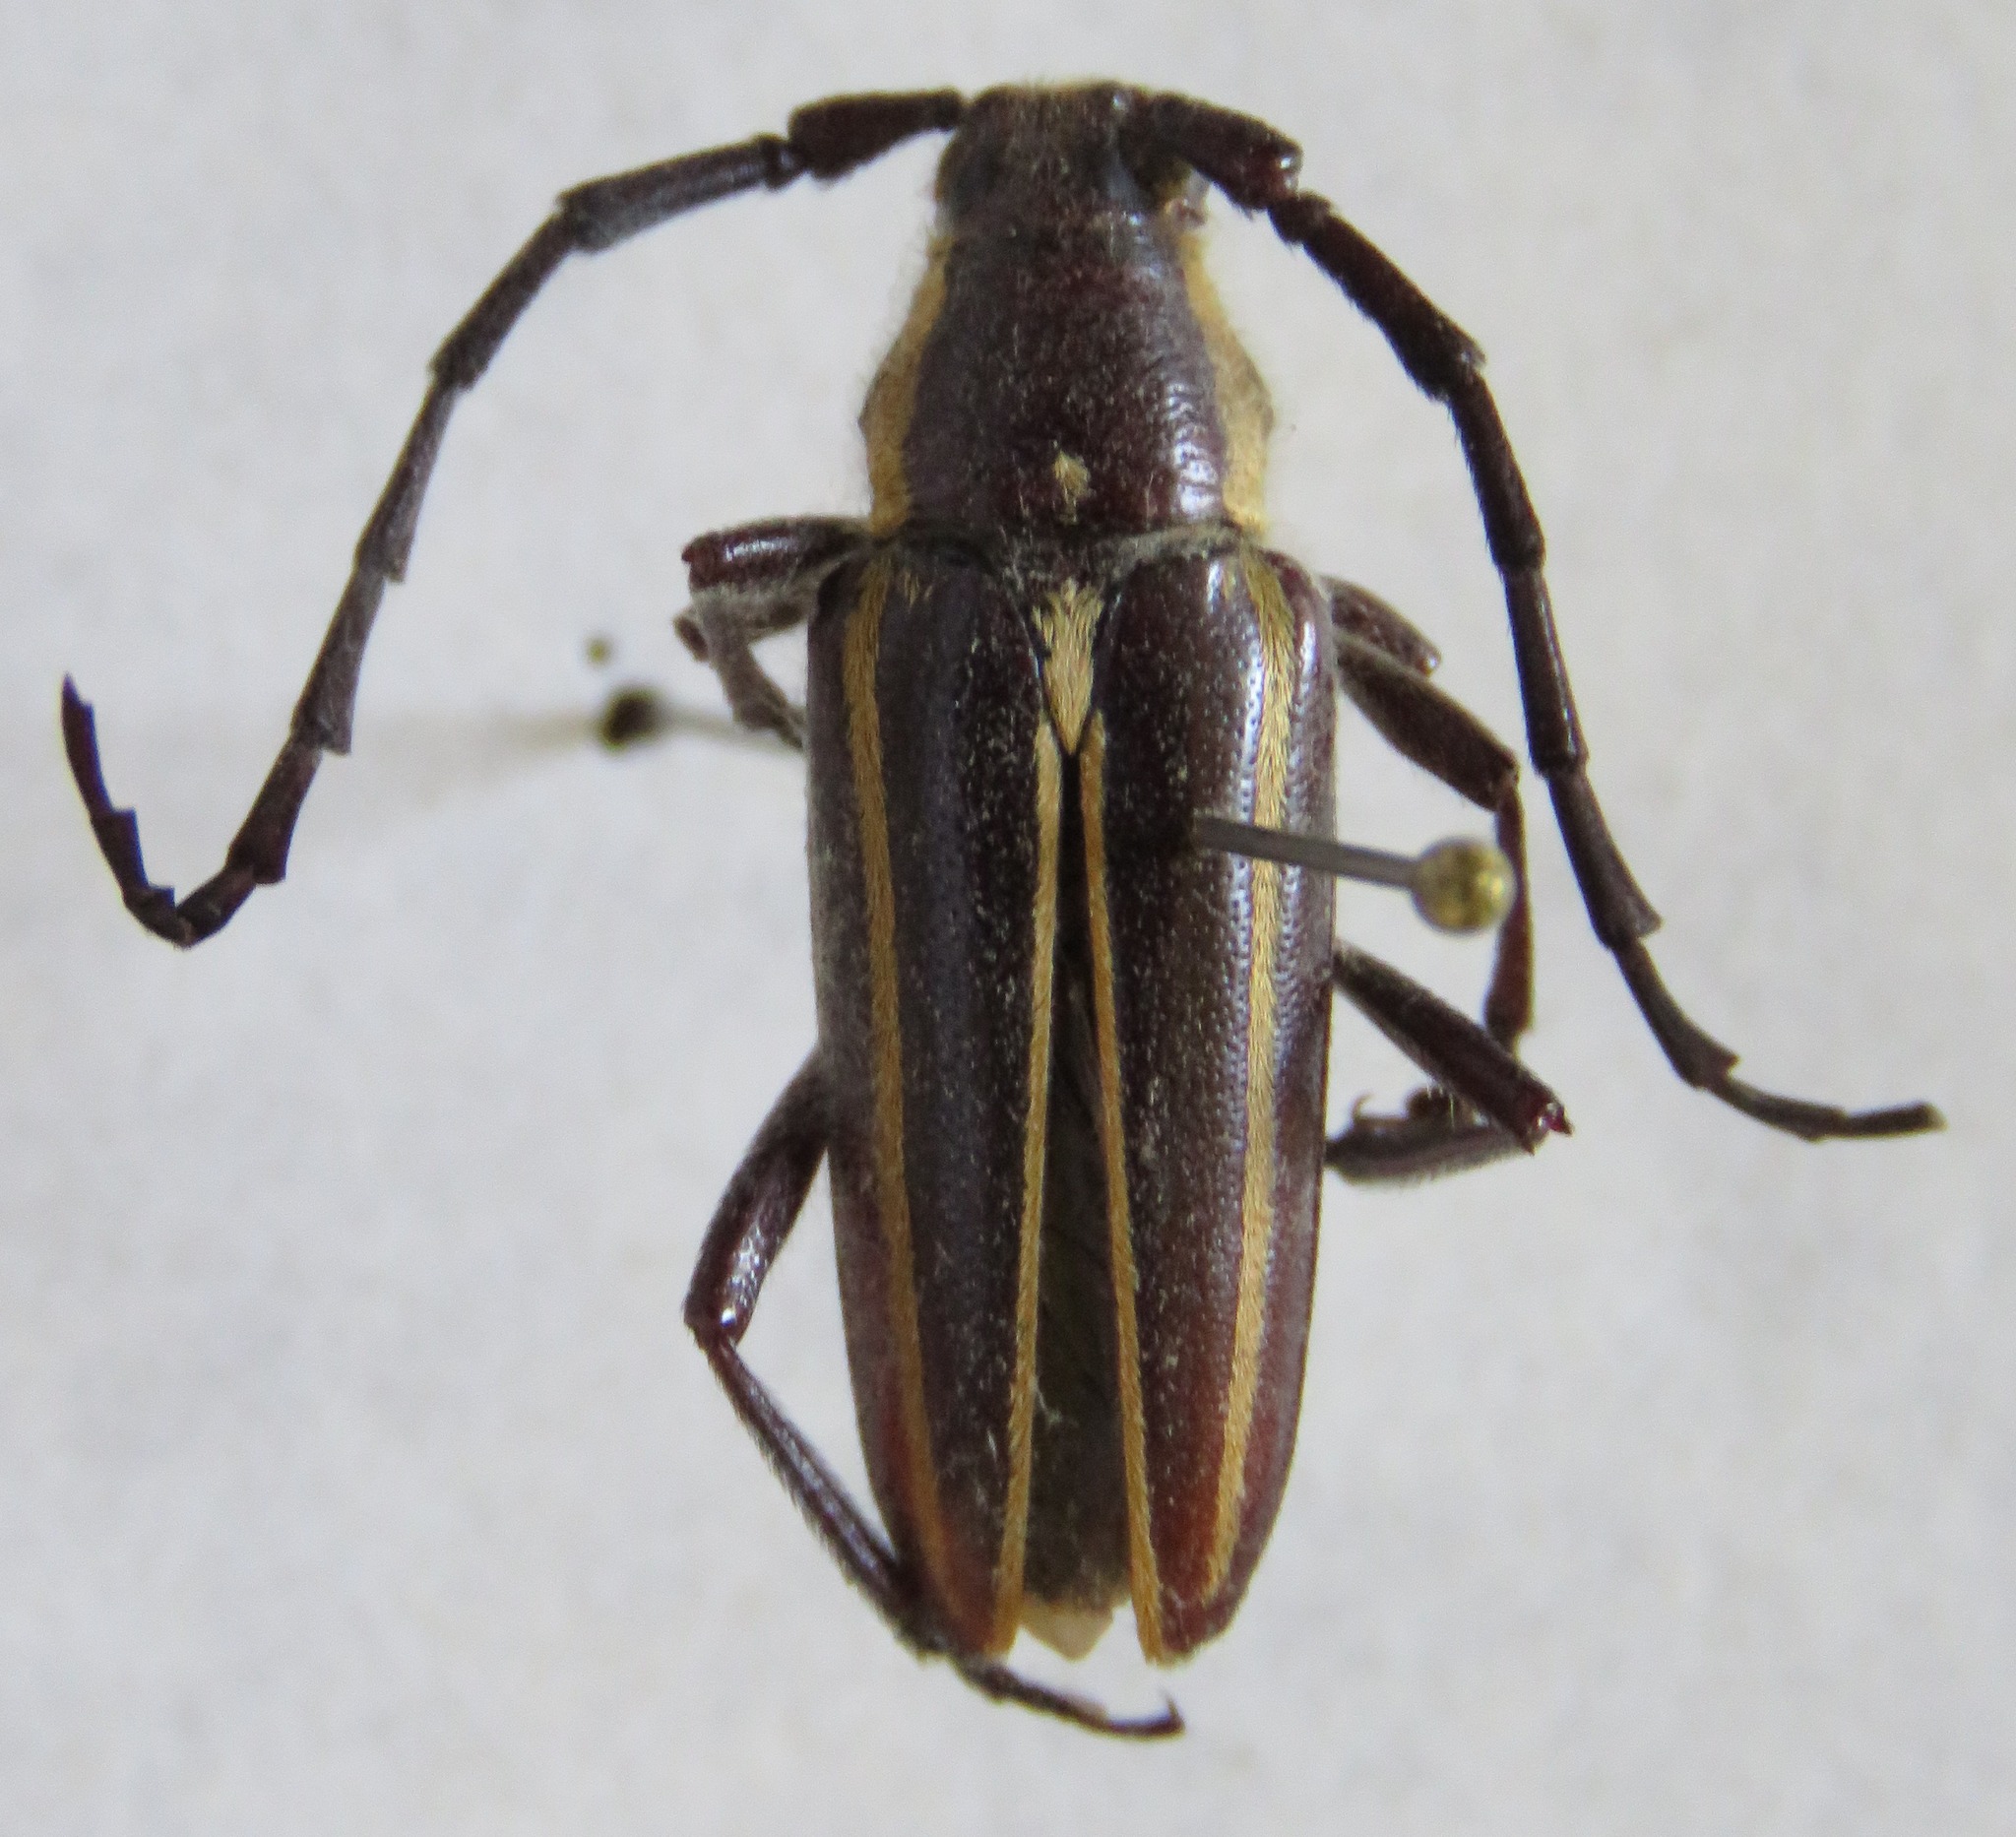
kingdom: Animalia
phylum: Arthropoda
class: Insecta
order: Coleoptera
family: Cerambycidae
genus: Sphaenothecus
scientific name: Sphaenothecus facetus
